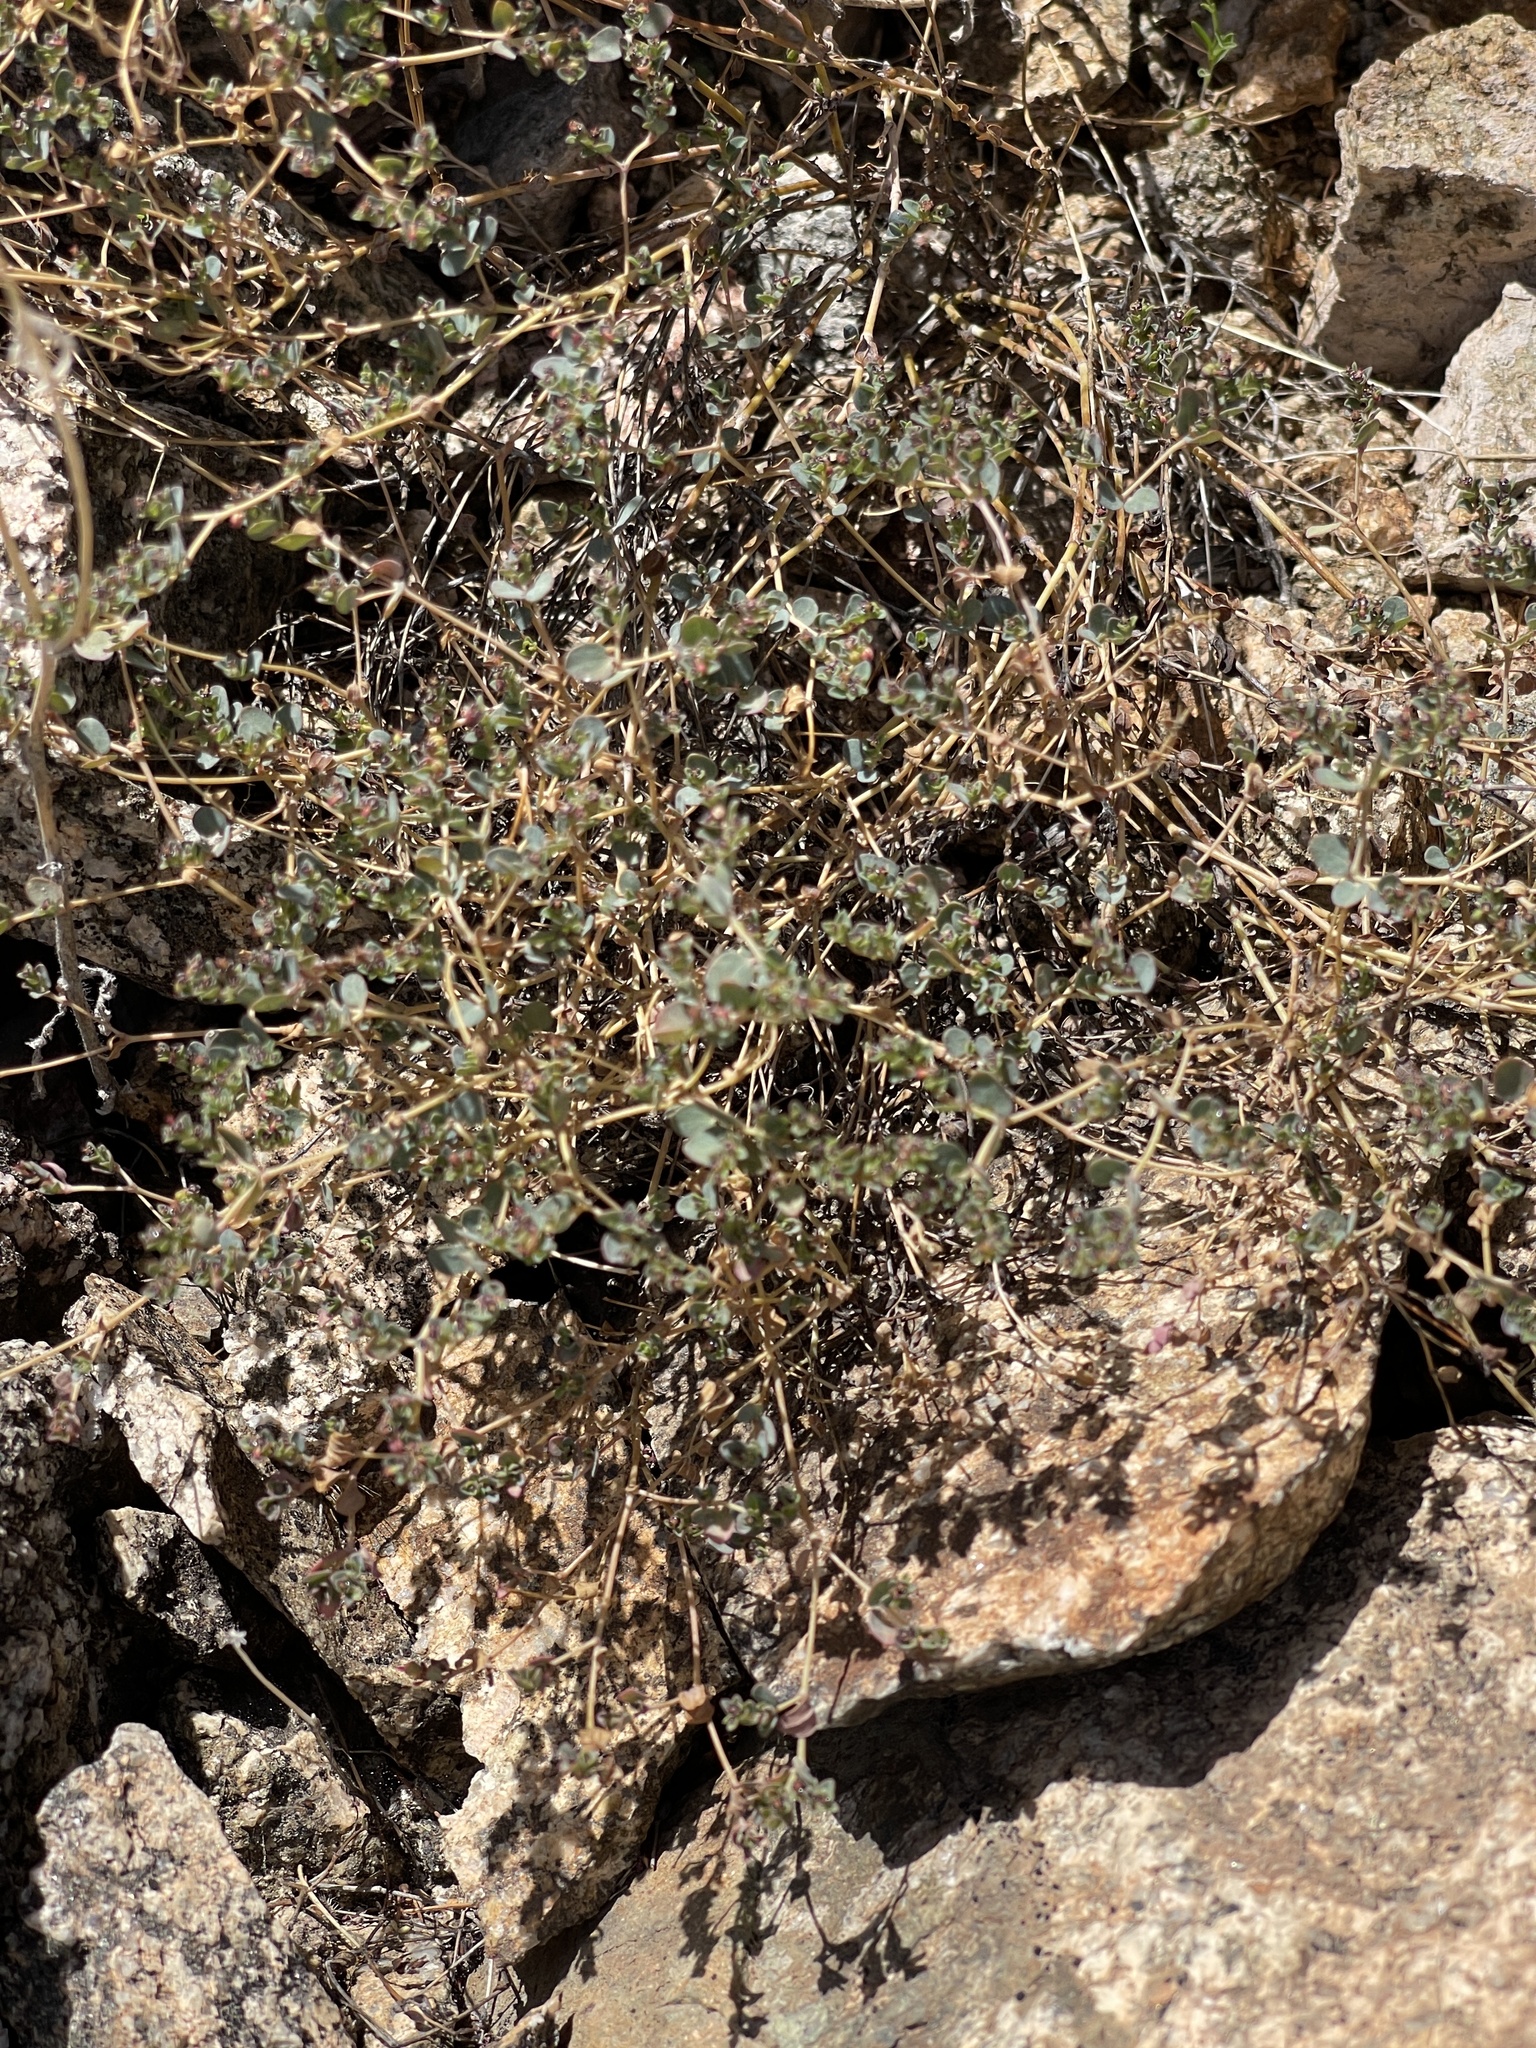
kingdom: Plantae
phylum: Tracheophyta
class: Magnoliopsida
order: Malpighiales
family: Euphorbiaceae
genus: Euphorbia
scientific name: Euphorbia polycarpa
